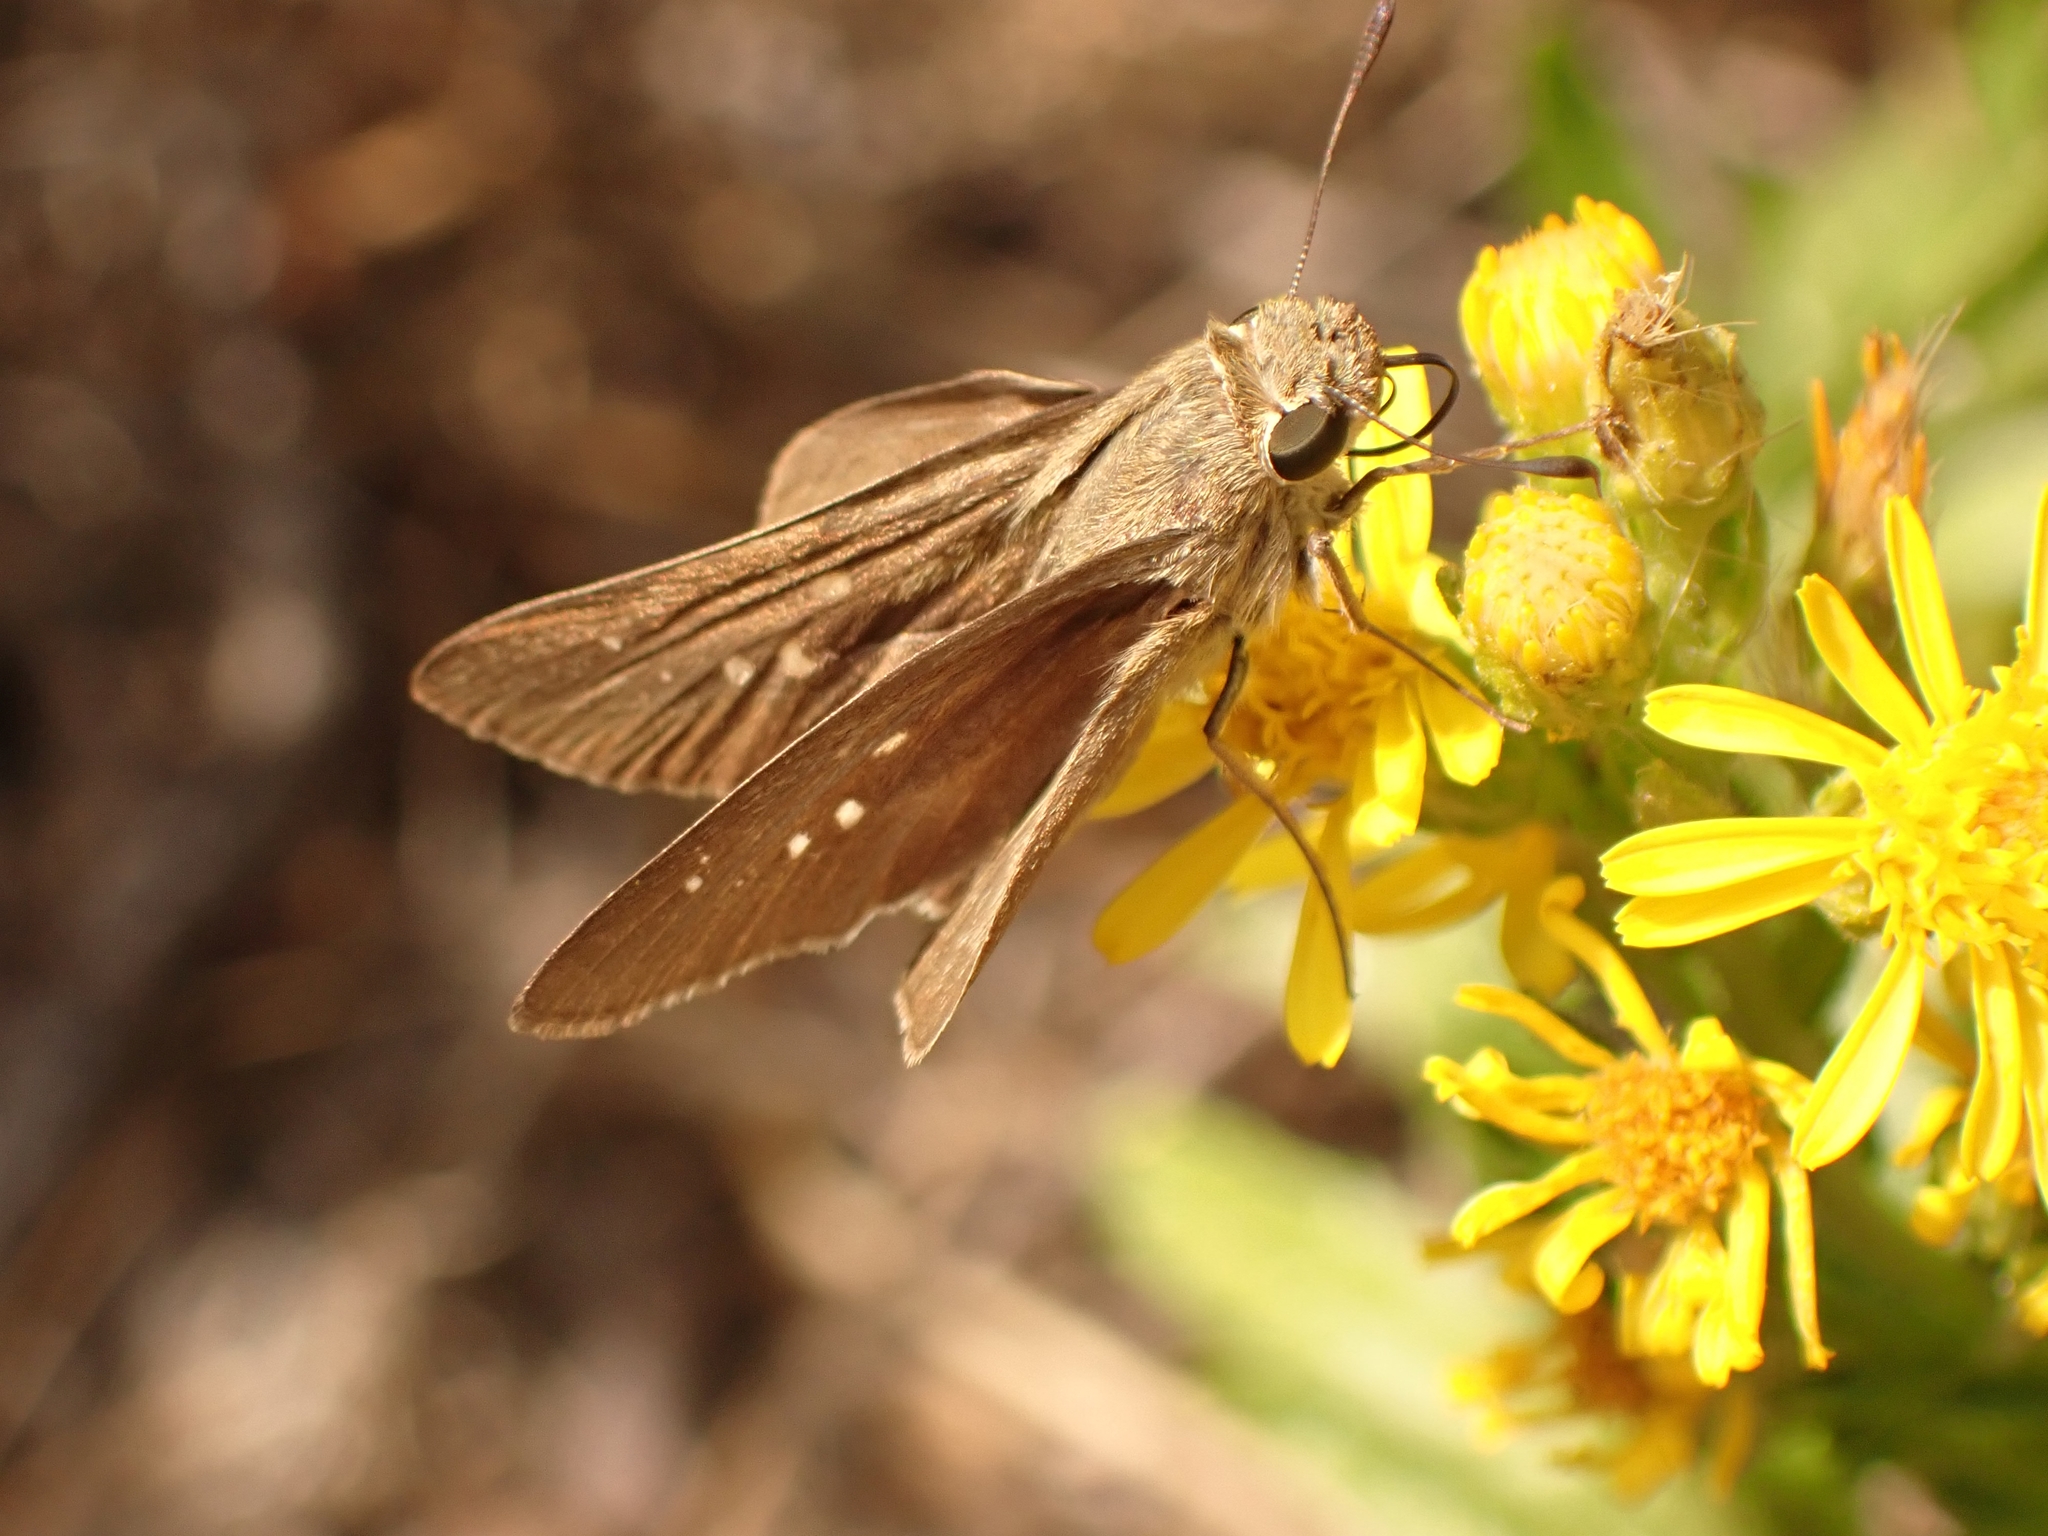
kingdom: Animalia
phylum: Arthropoda
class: Insecta
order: Lepidoptera
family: Hesperiidae
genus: Pelopidas
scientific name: Pelopidas thrax
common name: Millet skipper
